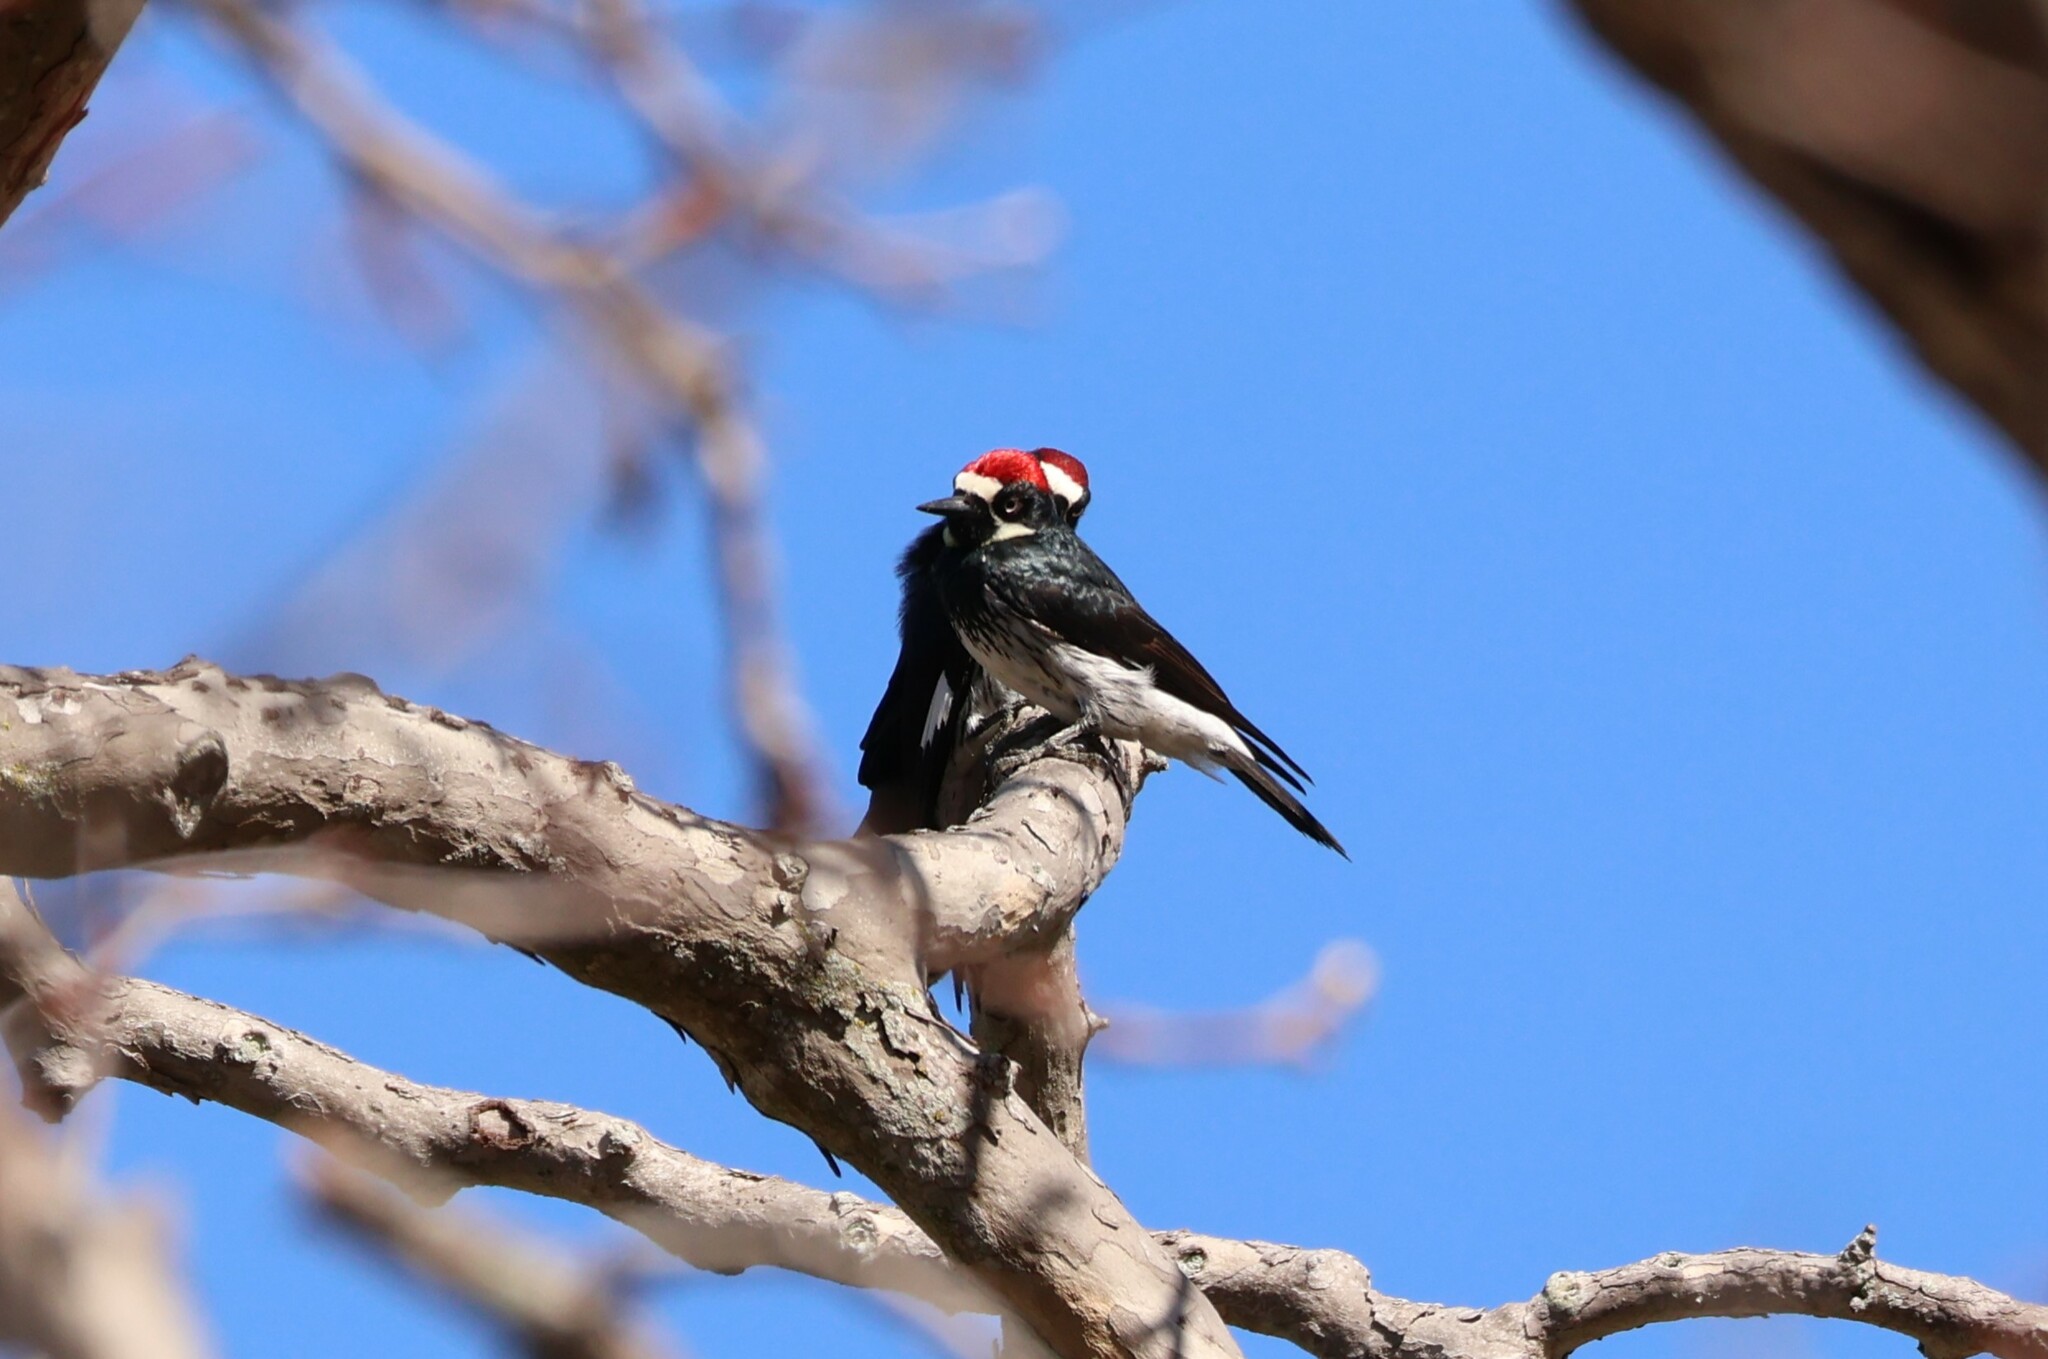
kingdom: Animalia
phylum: Chordata
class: Aves
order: Piciformes
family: Picidae
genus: Melanerpes
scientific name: Melanerpes formicivorus
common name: Acorn woodpecker
